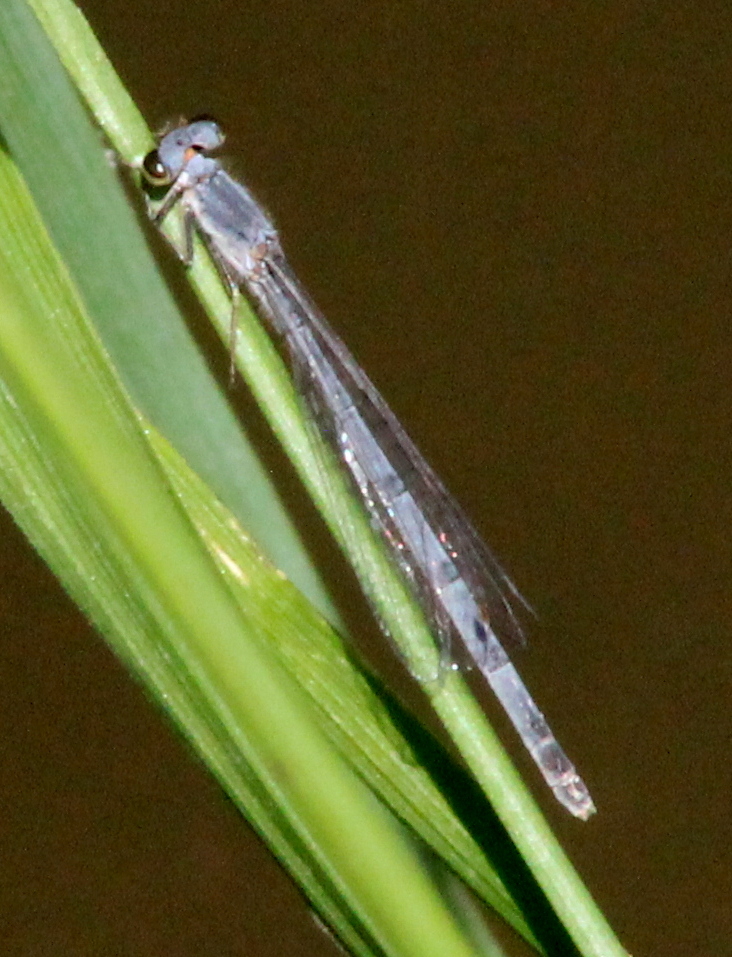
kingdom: Animalia
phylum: Arthropoda
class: Insecta
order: Odonata
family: Coenagrionidae
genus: Ischnura
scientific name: Ischnura posita
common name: Fragile forktail
